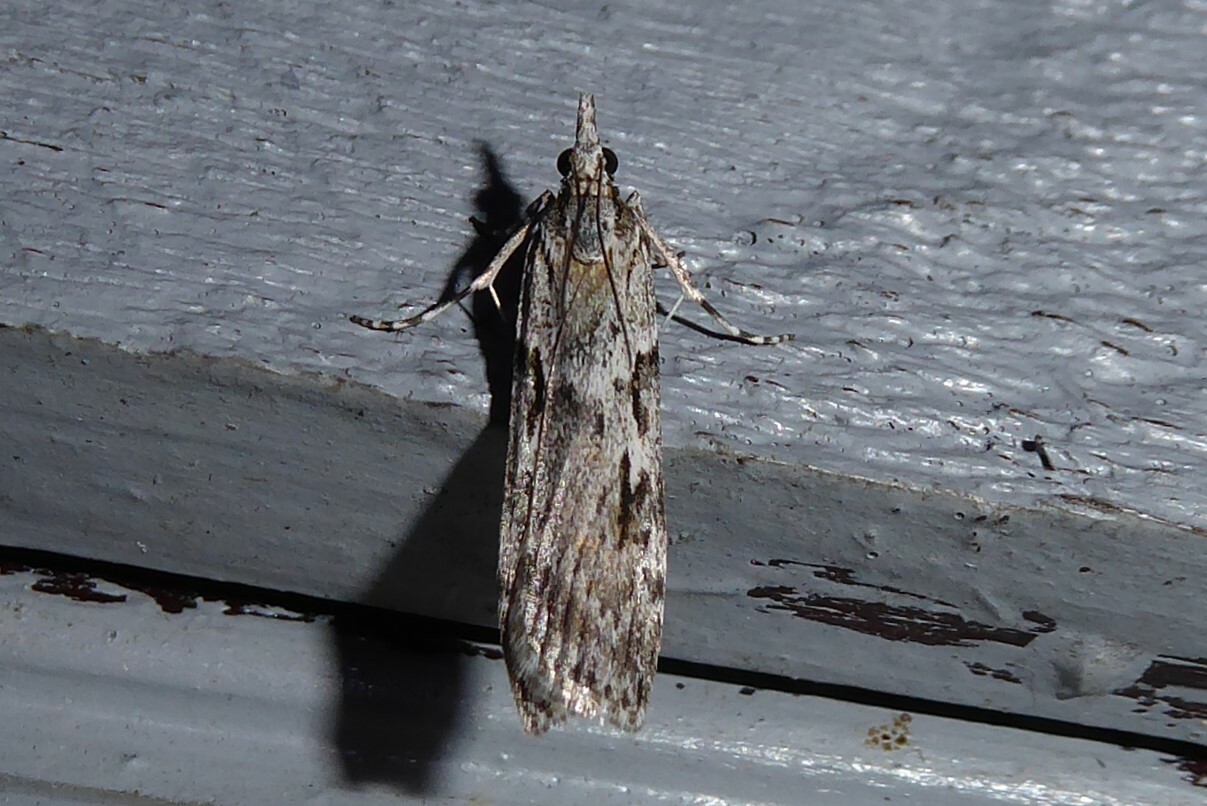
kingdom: Animalia
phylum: Arthropoda
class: Insecta
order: Lepidoptera
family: Crambidae
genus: Scoparia
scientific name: Scoparia halopis
